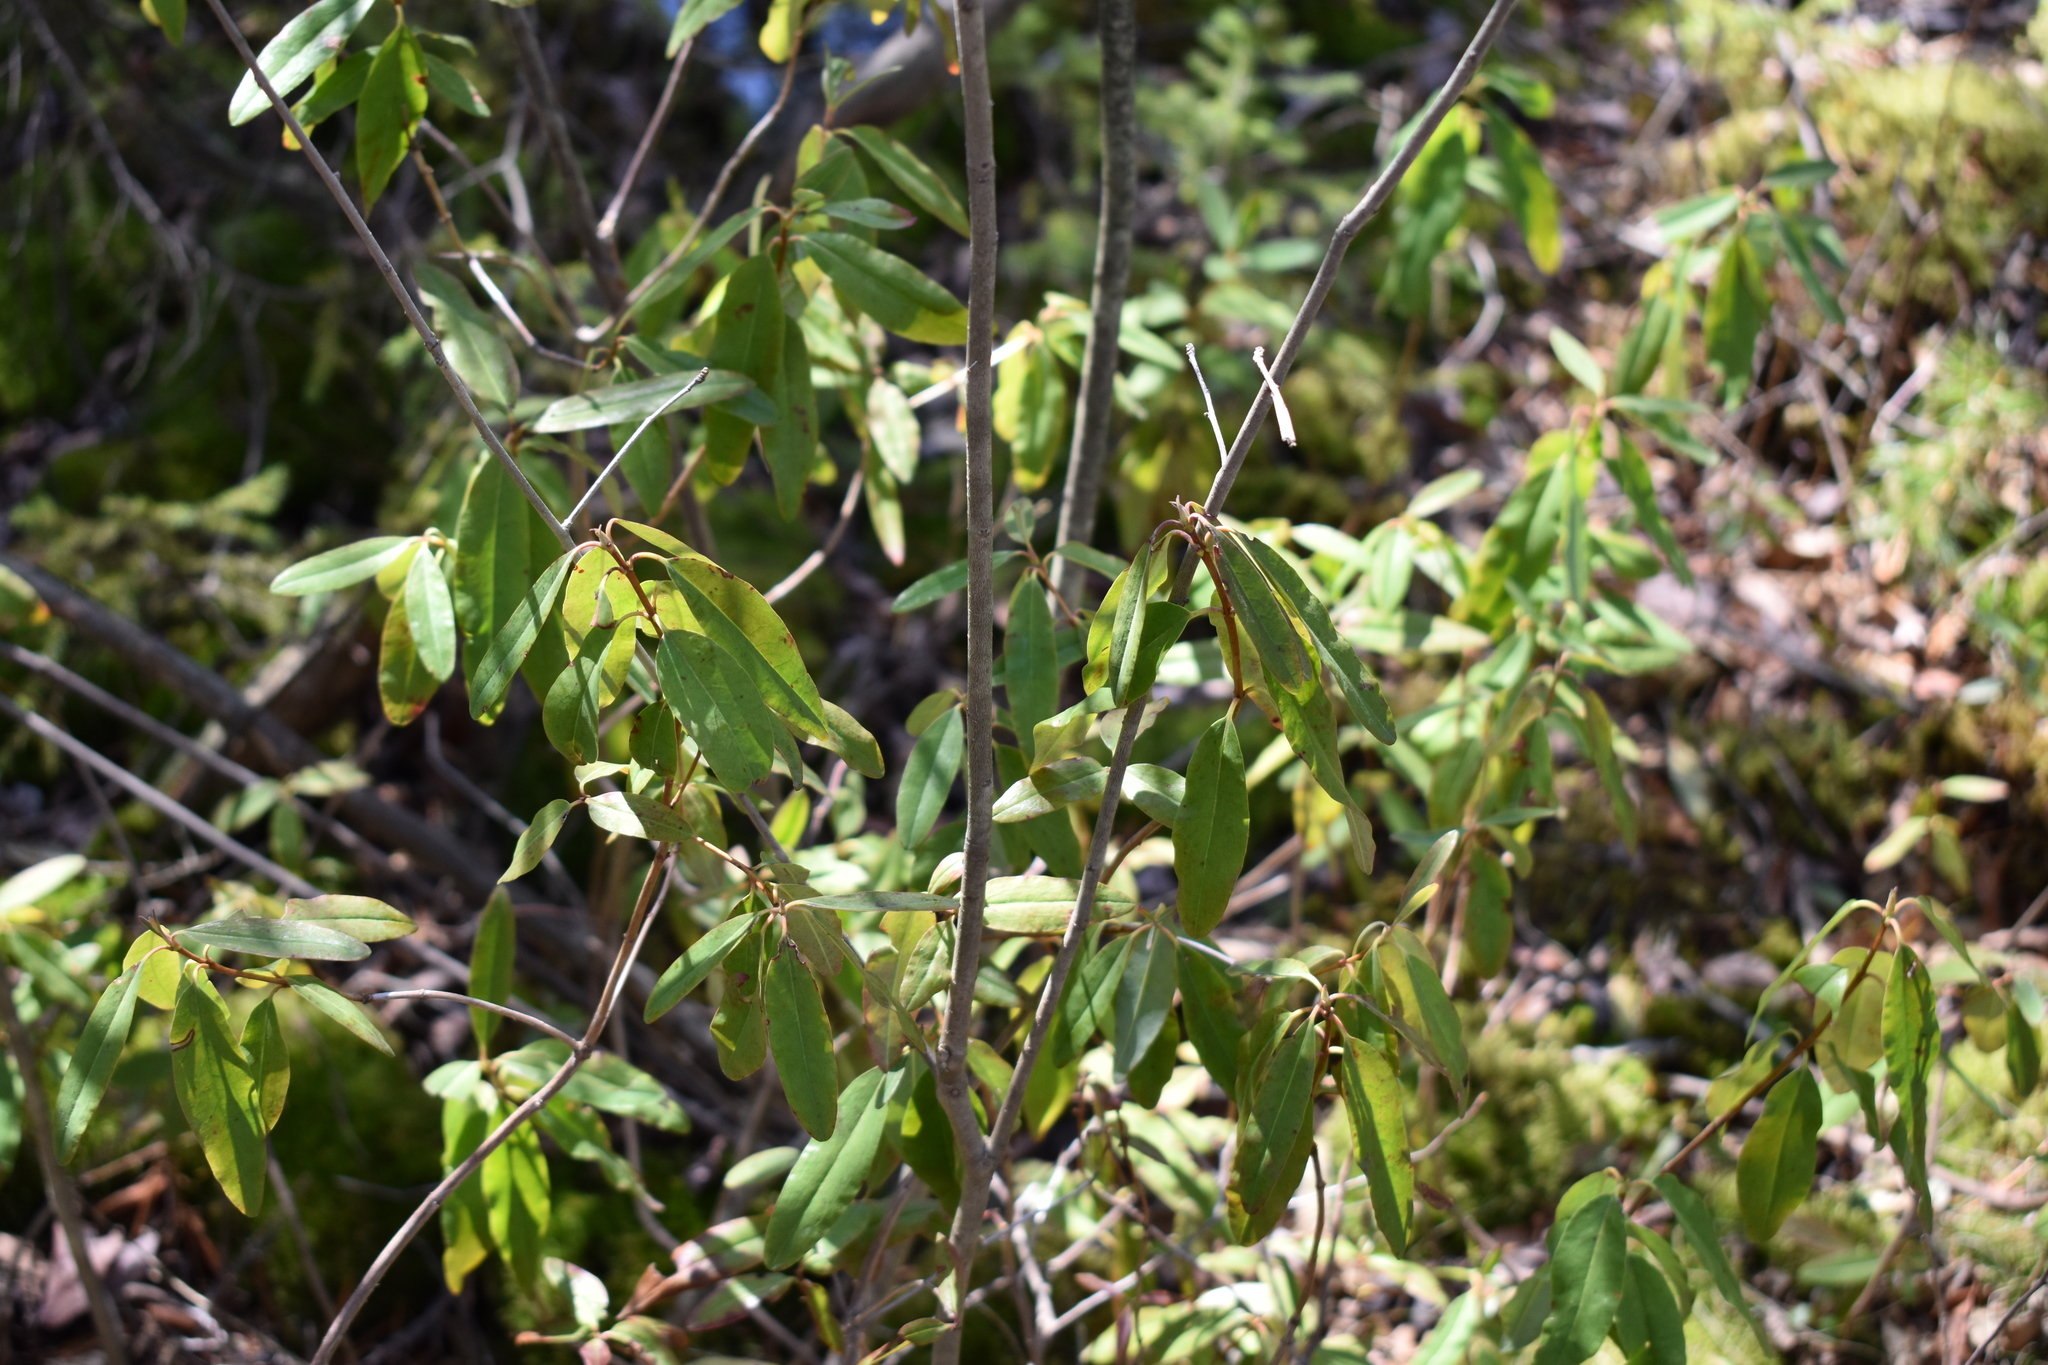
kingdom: Plantae
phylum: Tracheophyta
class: Magnoliopsida
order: Ericales
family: Ericaceae
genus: Kalmia
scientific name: Kalmia angustifolia
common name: Sheep-laurel
